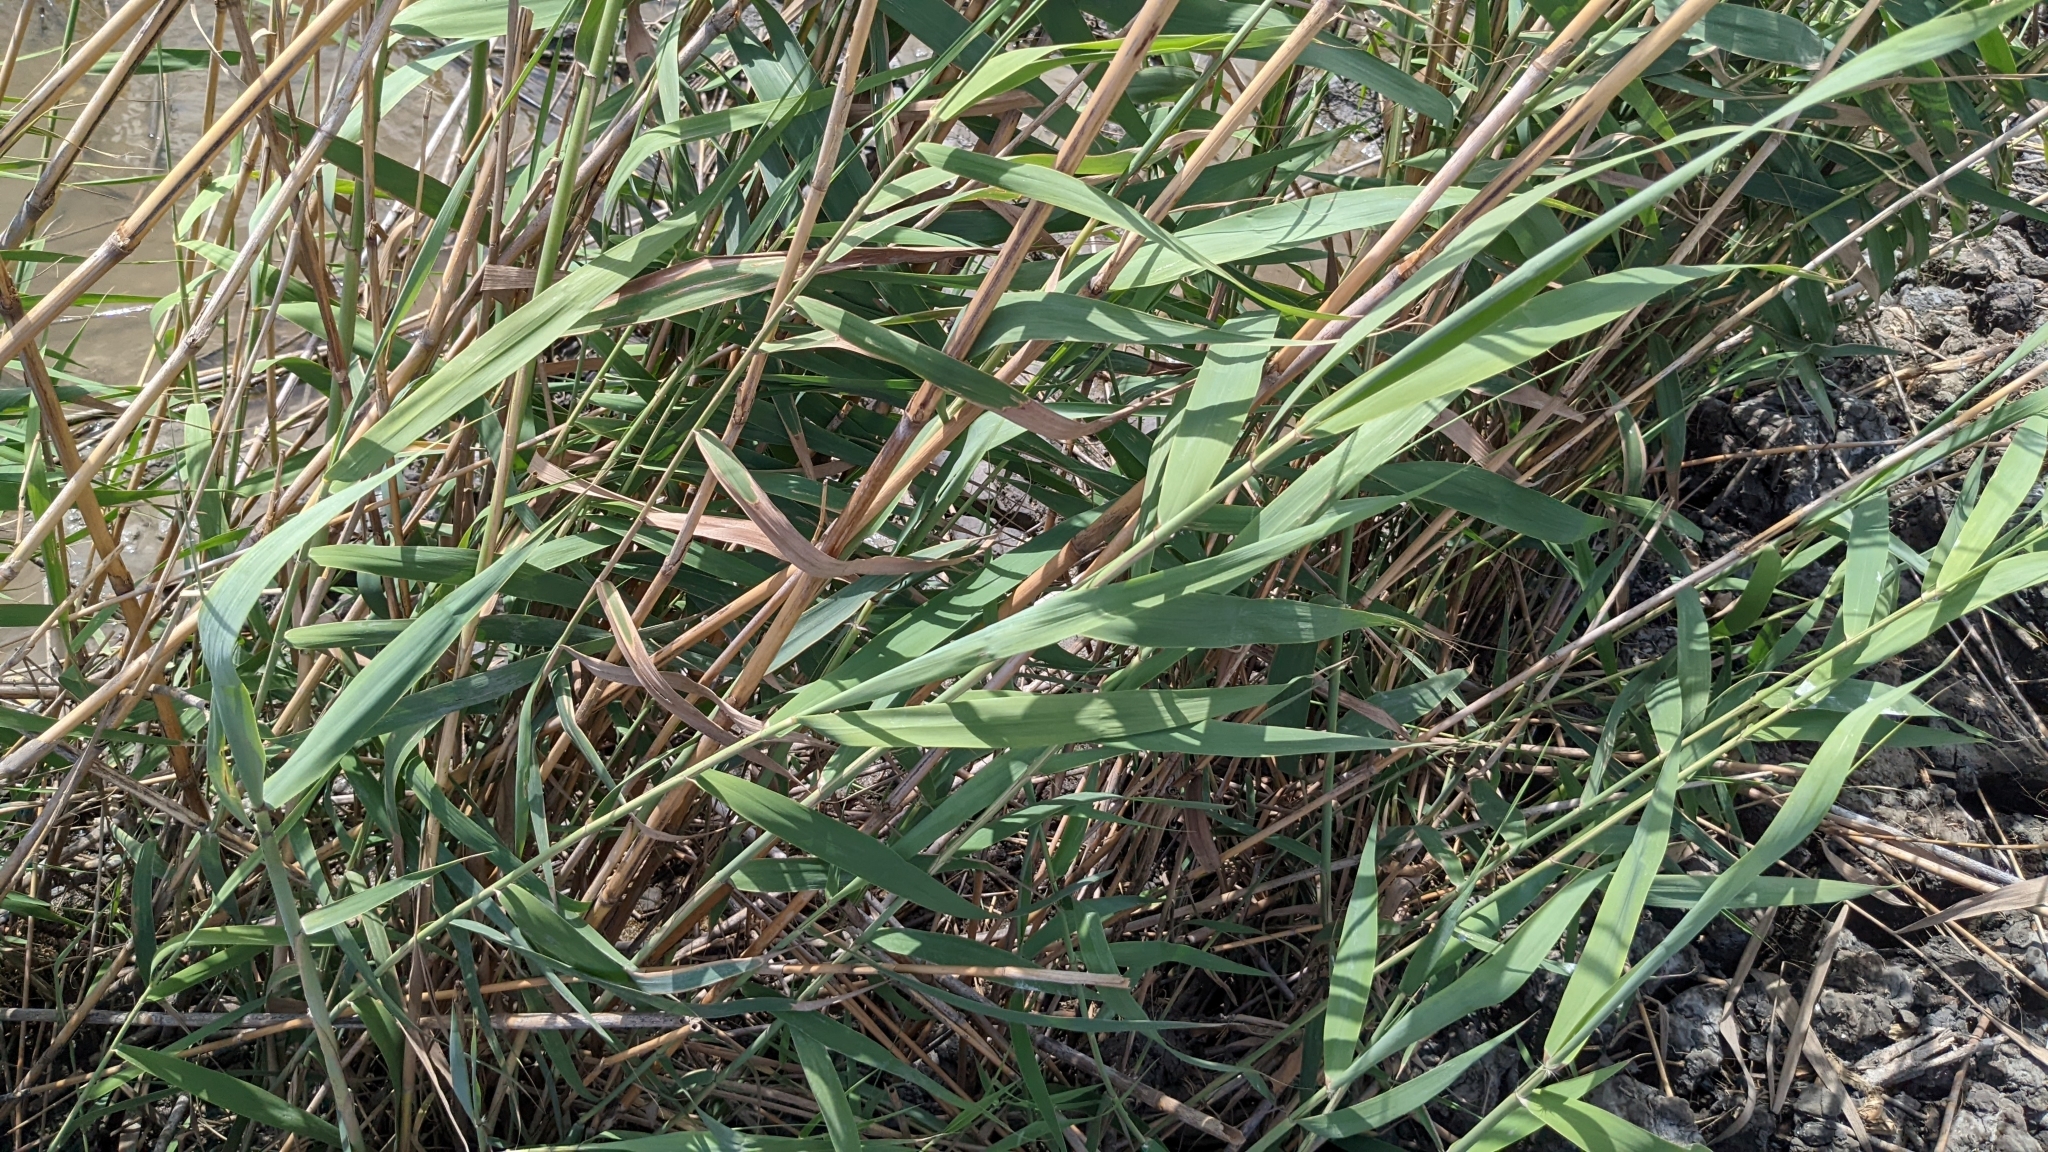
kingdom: Plantae
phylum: Tracheophyta
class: Liliopsida
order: Poales
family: Poaceae
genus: Phragmites
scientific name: Phragmites australis
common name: Common reed
